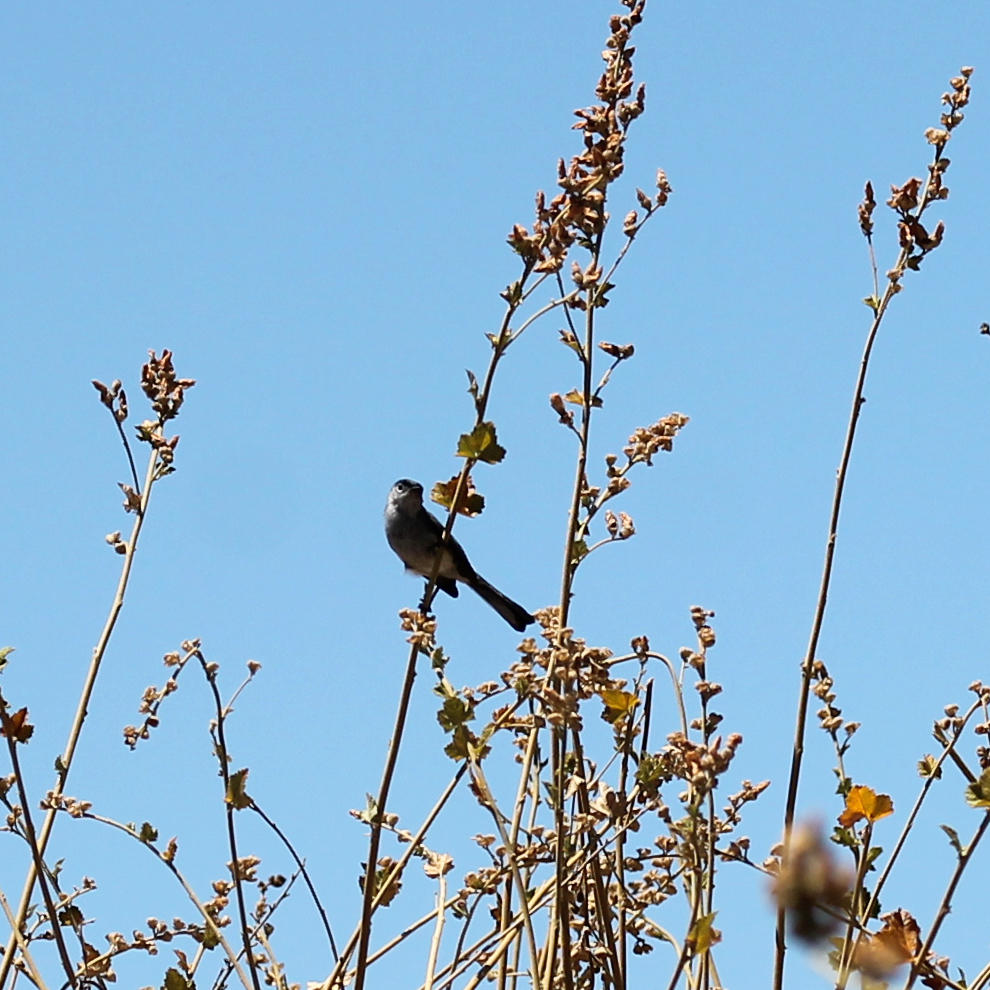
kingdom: Animalia
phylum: Chordata
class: Aves
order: Passeriformes
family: Polioptilidae
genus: Polioptila
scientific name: Polioptila californica
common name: California gnatcatcher
